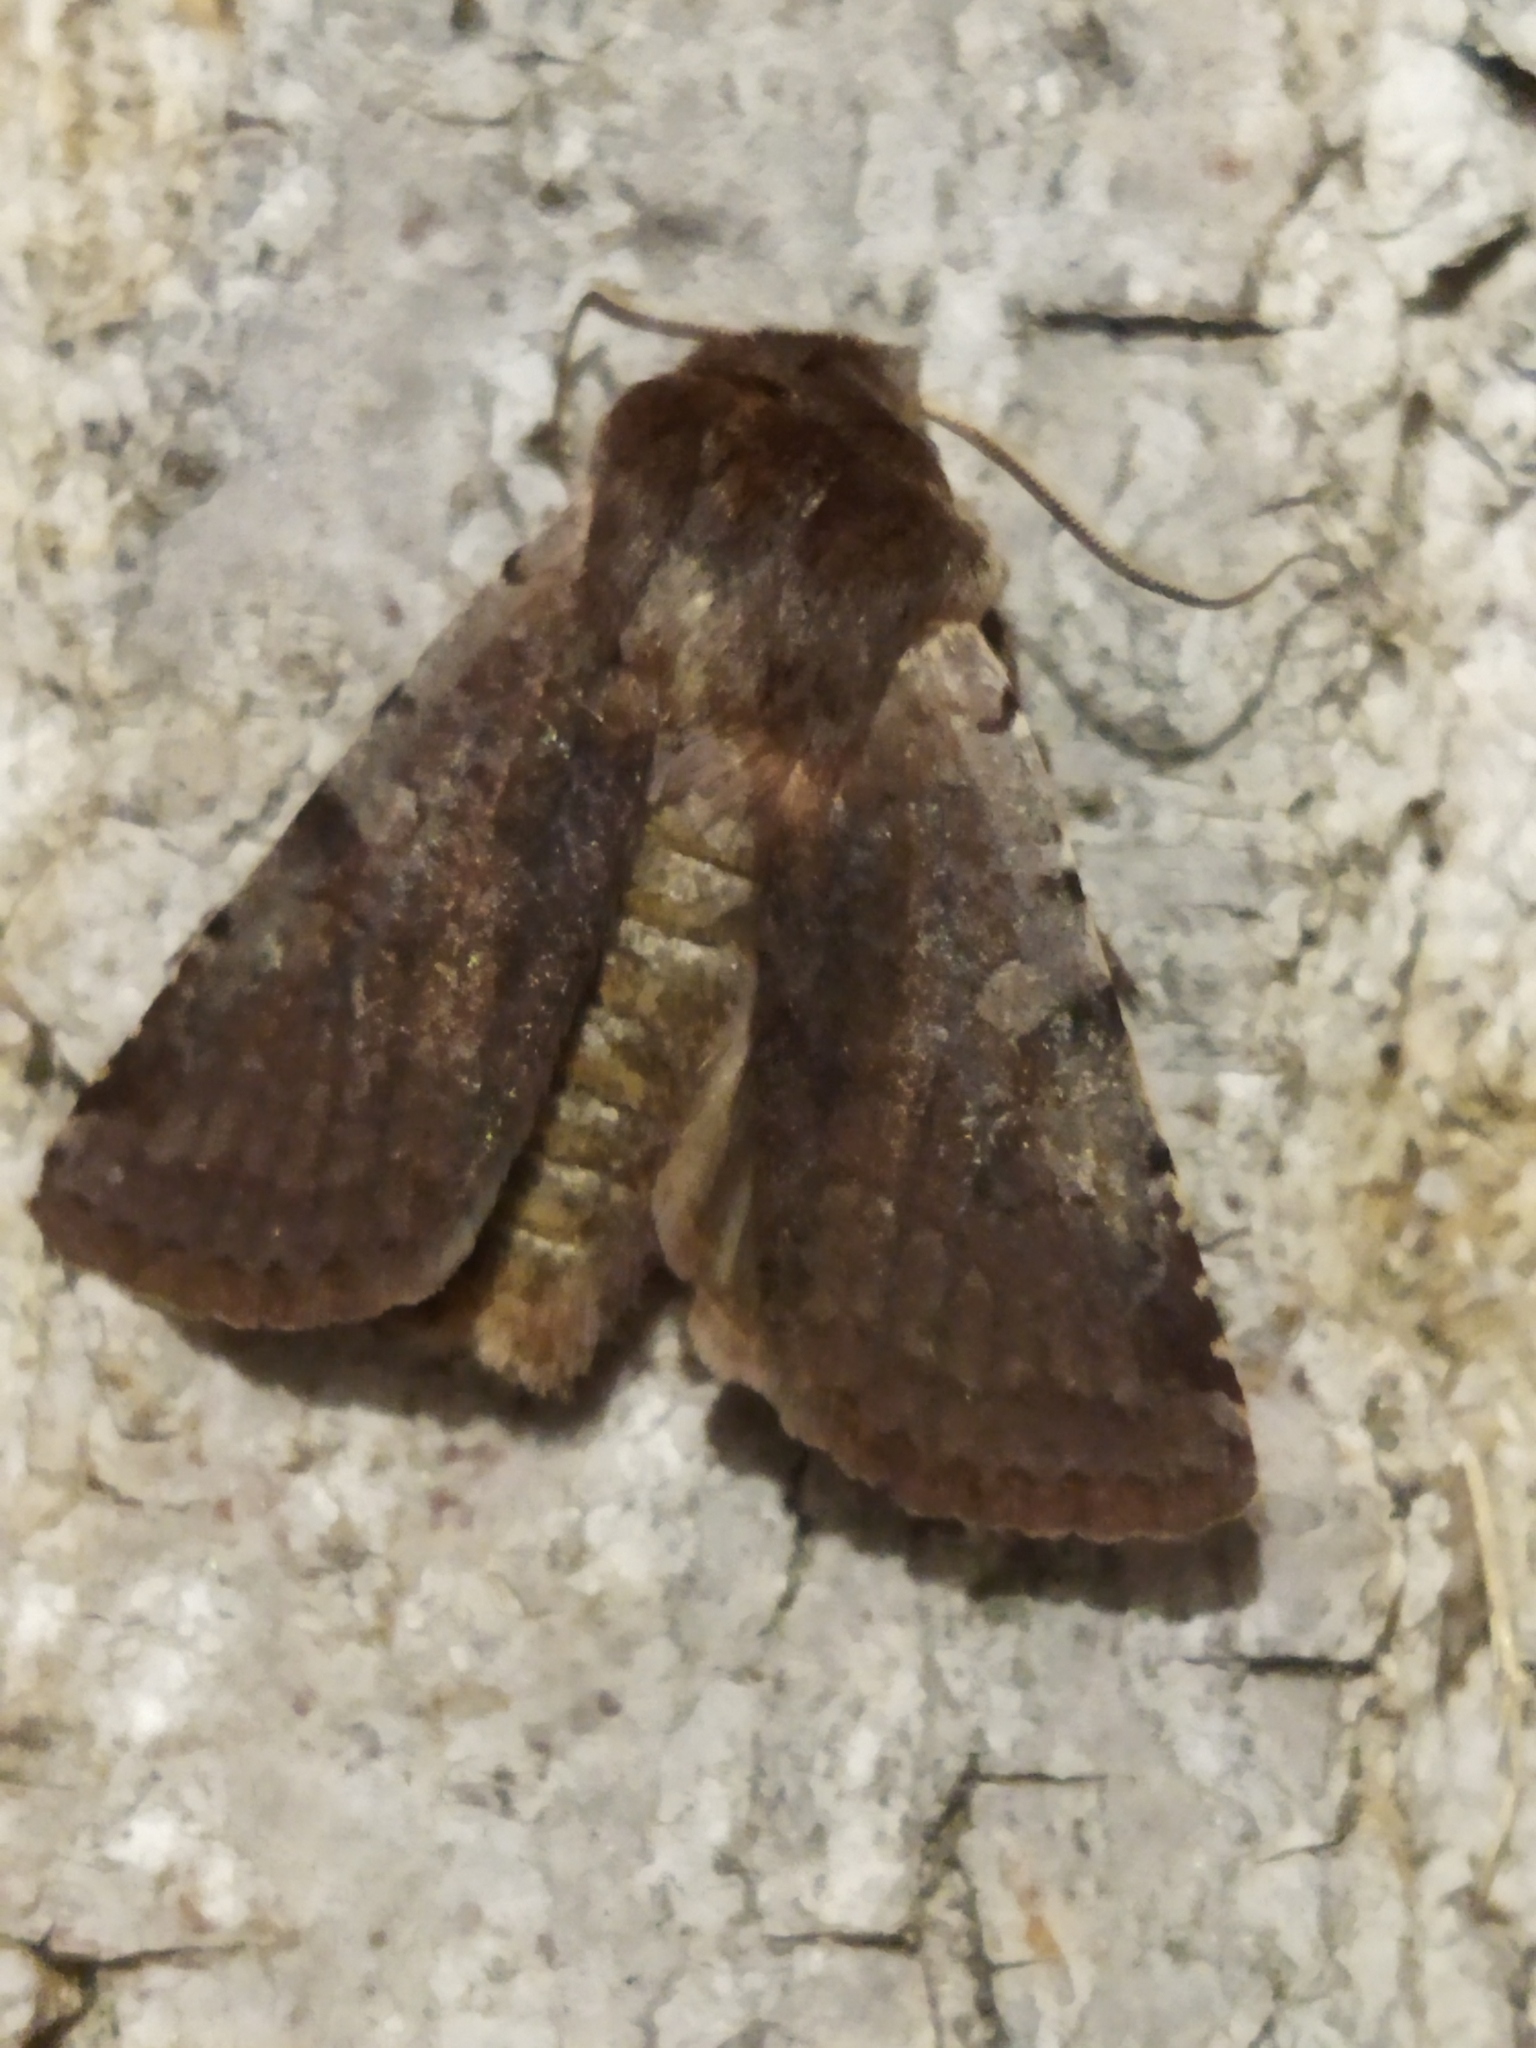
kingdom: Animalia
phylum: Arthropoda
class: Insecta
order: Lepidoptera
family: Noctuidae
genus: Cerastis
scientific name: Cerastis rubricosa
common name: Red chestnut
